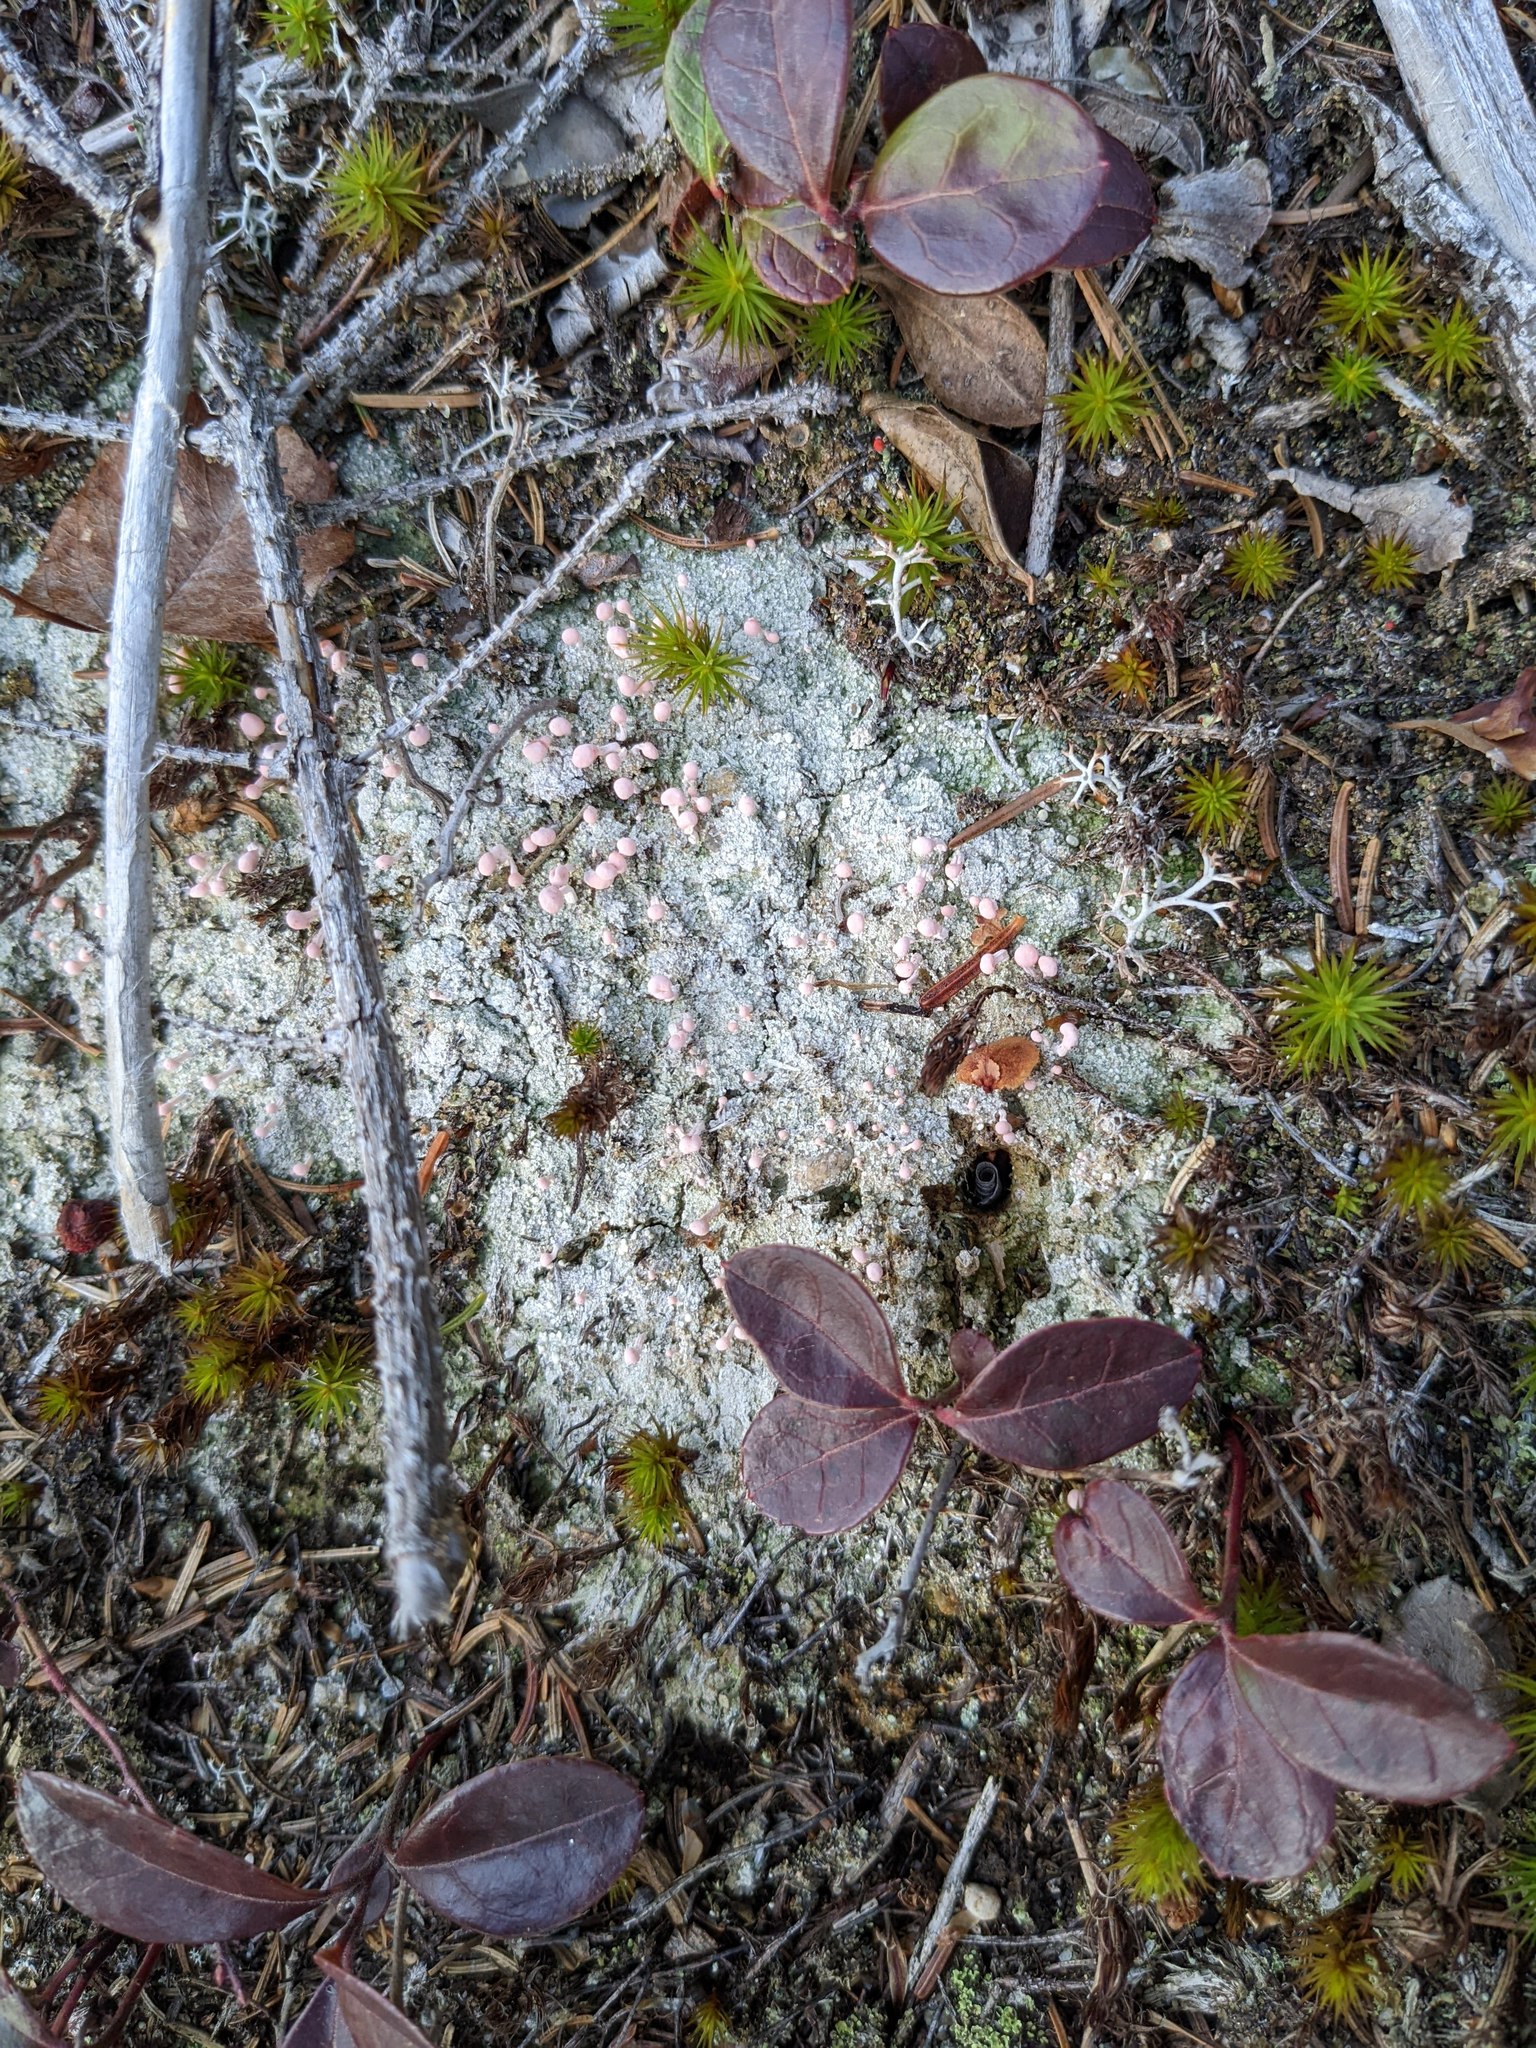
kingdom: Fungi
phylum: Ascomycota
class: Lecanoromycetes
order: Pertusariales
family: Icmadophilaceae
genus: Dibaeis
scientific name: Dibaeis baeomyces
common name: Pink earth lichen
